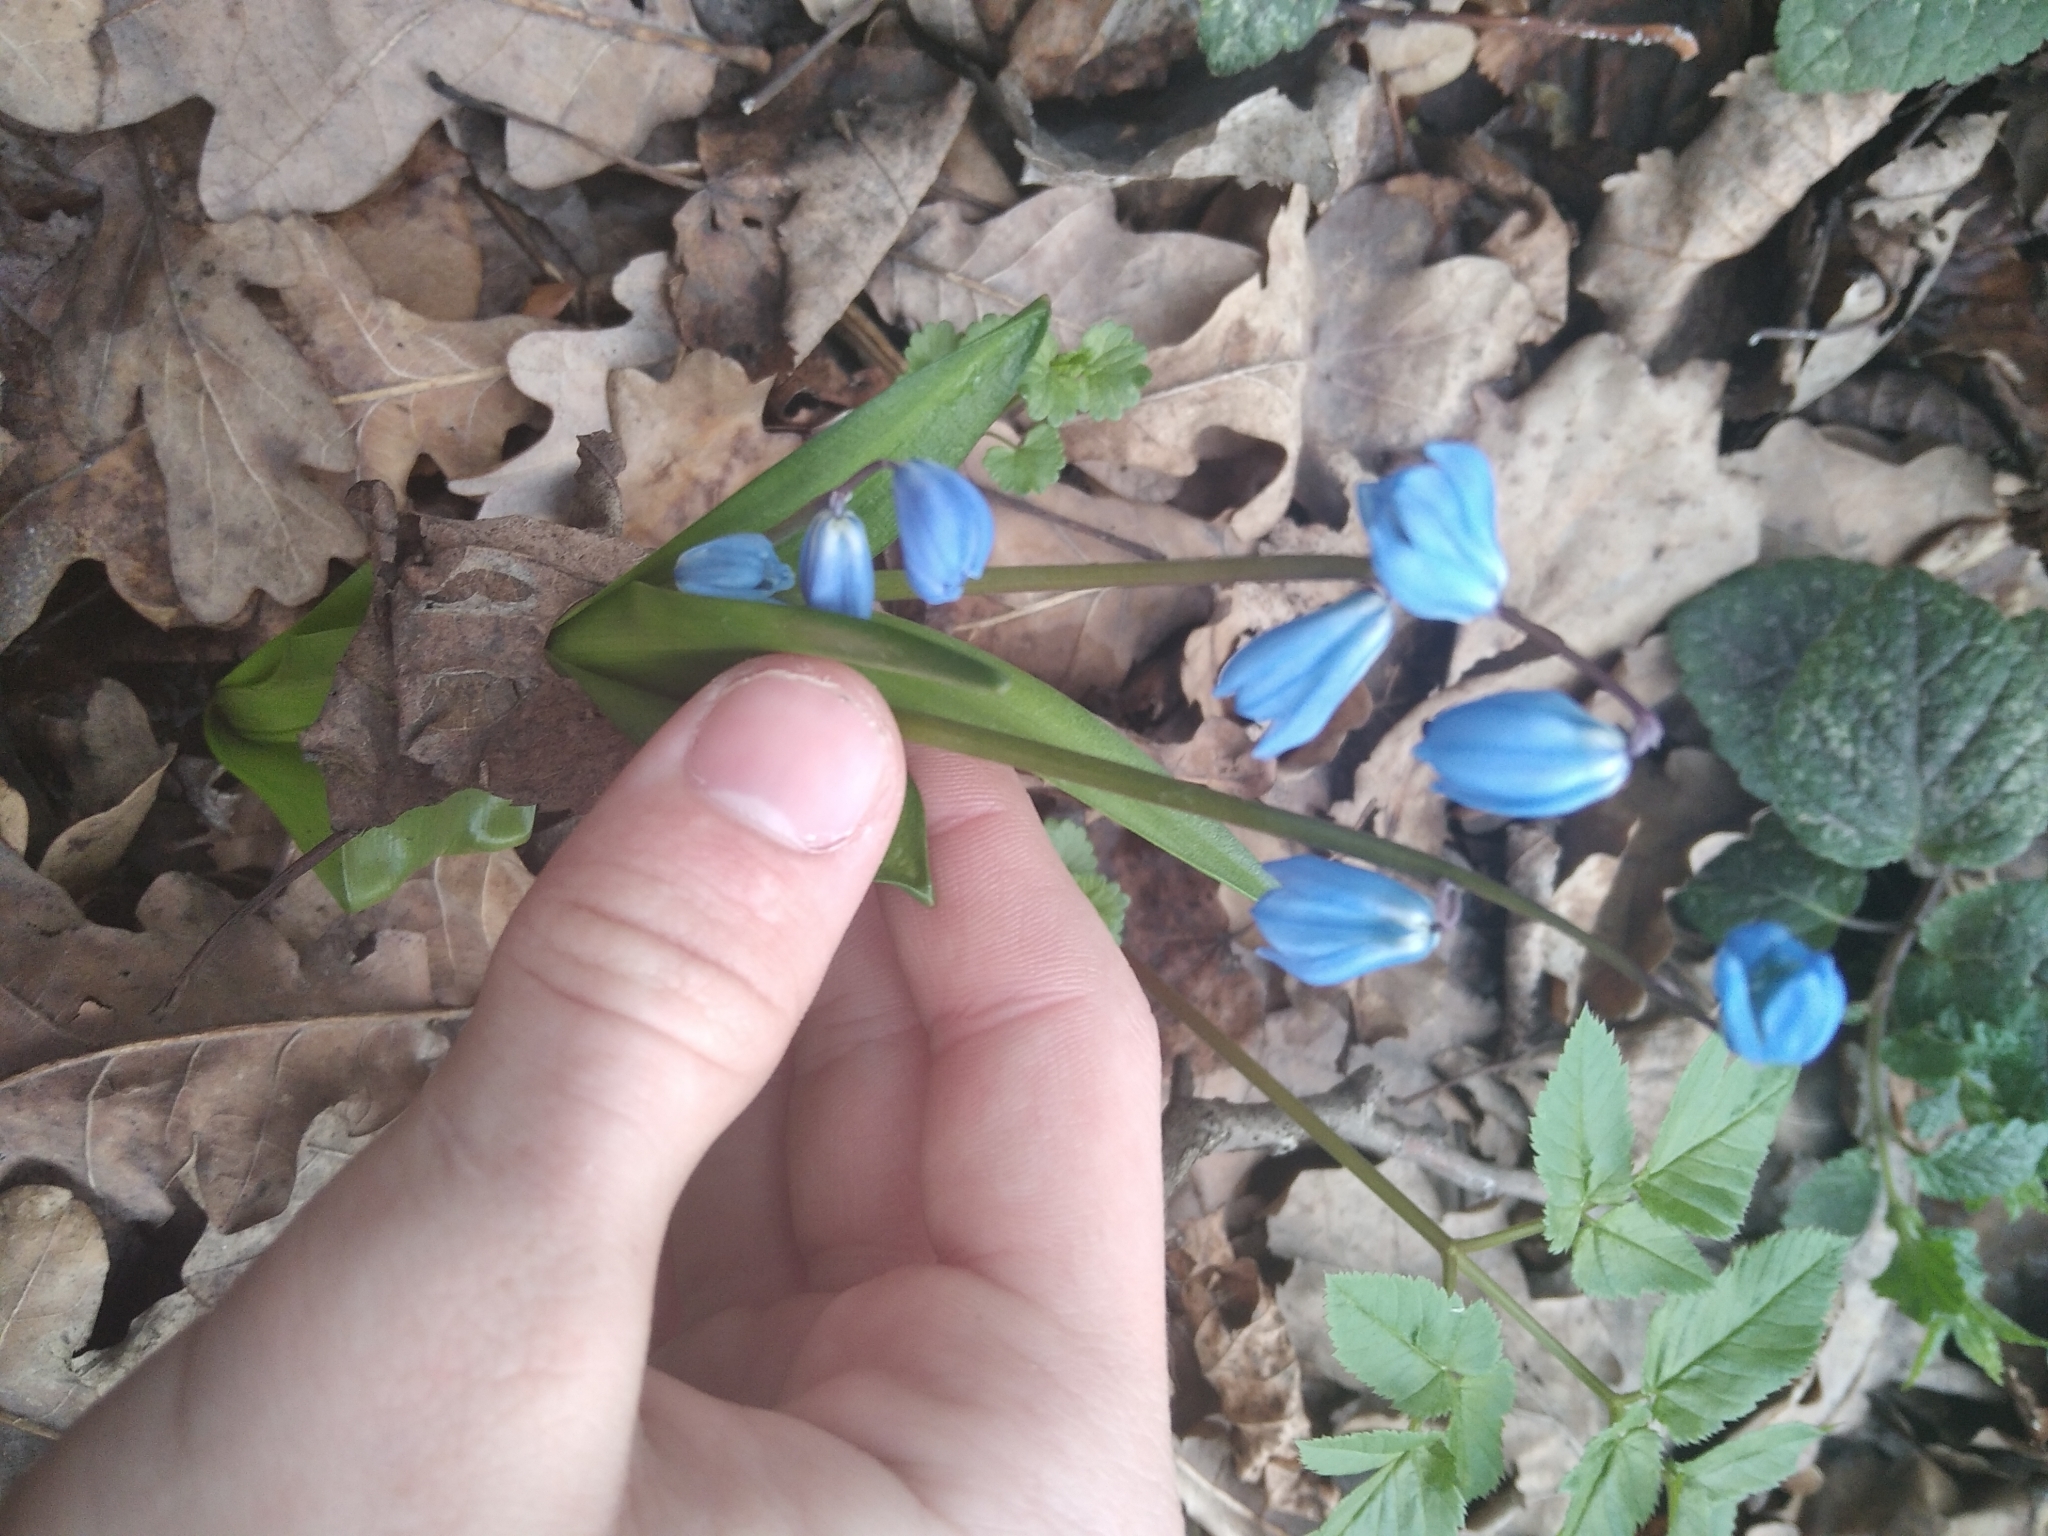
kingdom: Plantae
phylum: Tracheophyta
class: Liliopsida
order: Asparagales
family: Asparagaceae
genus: Scilla
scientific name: Scilla siberica
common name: Siberian squill
